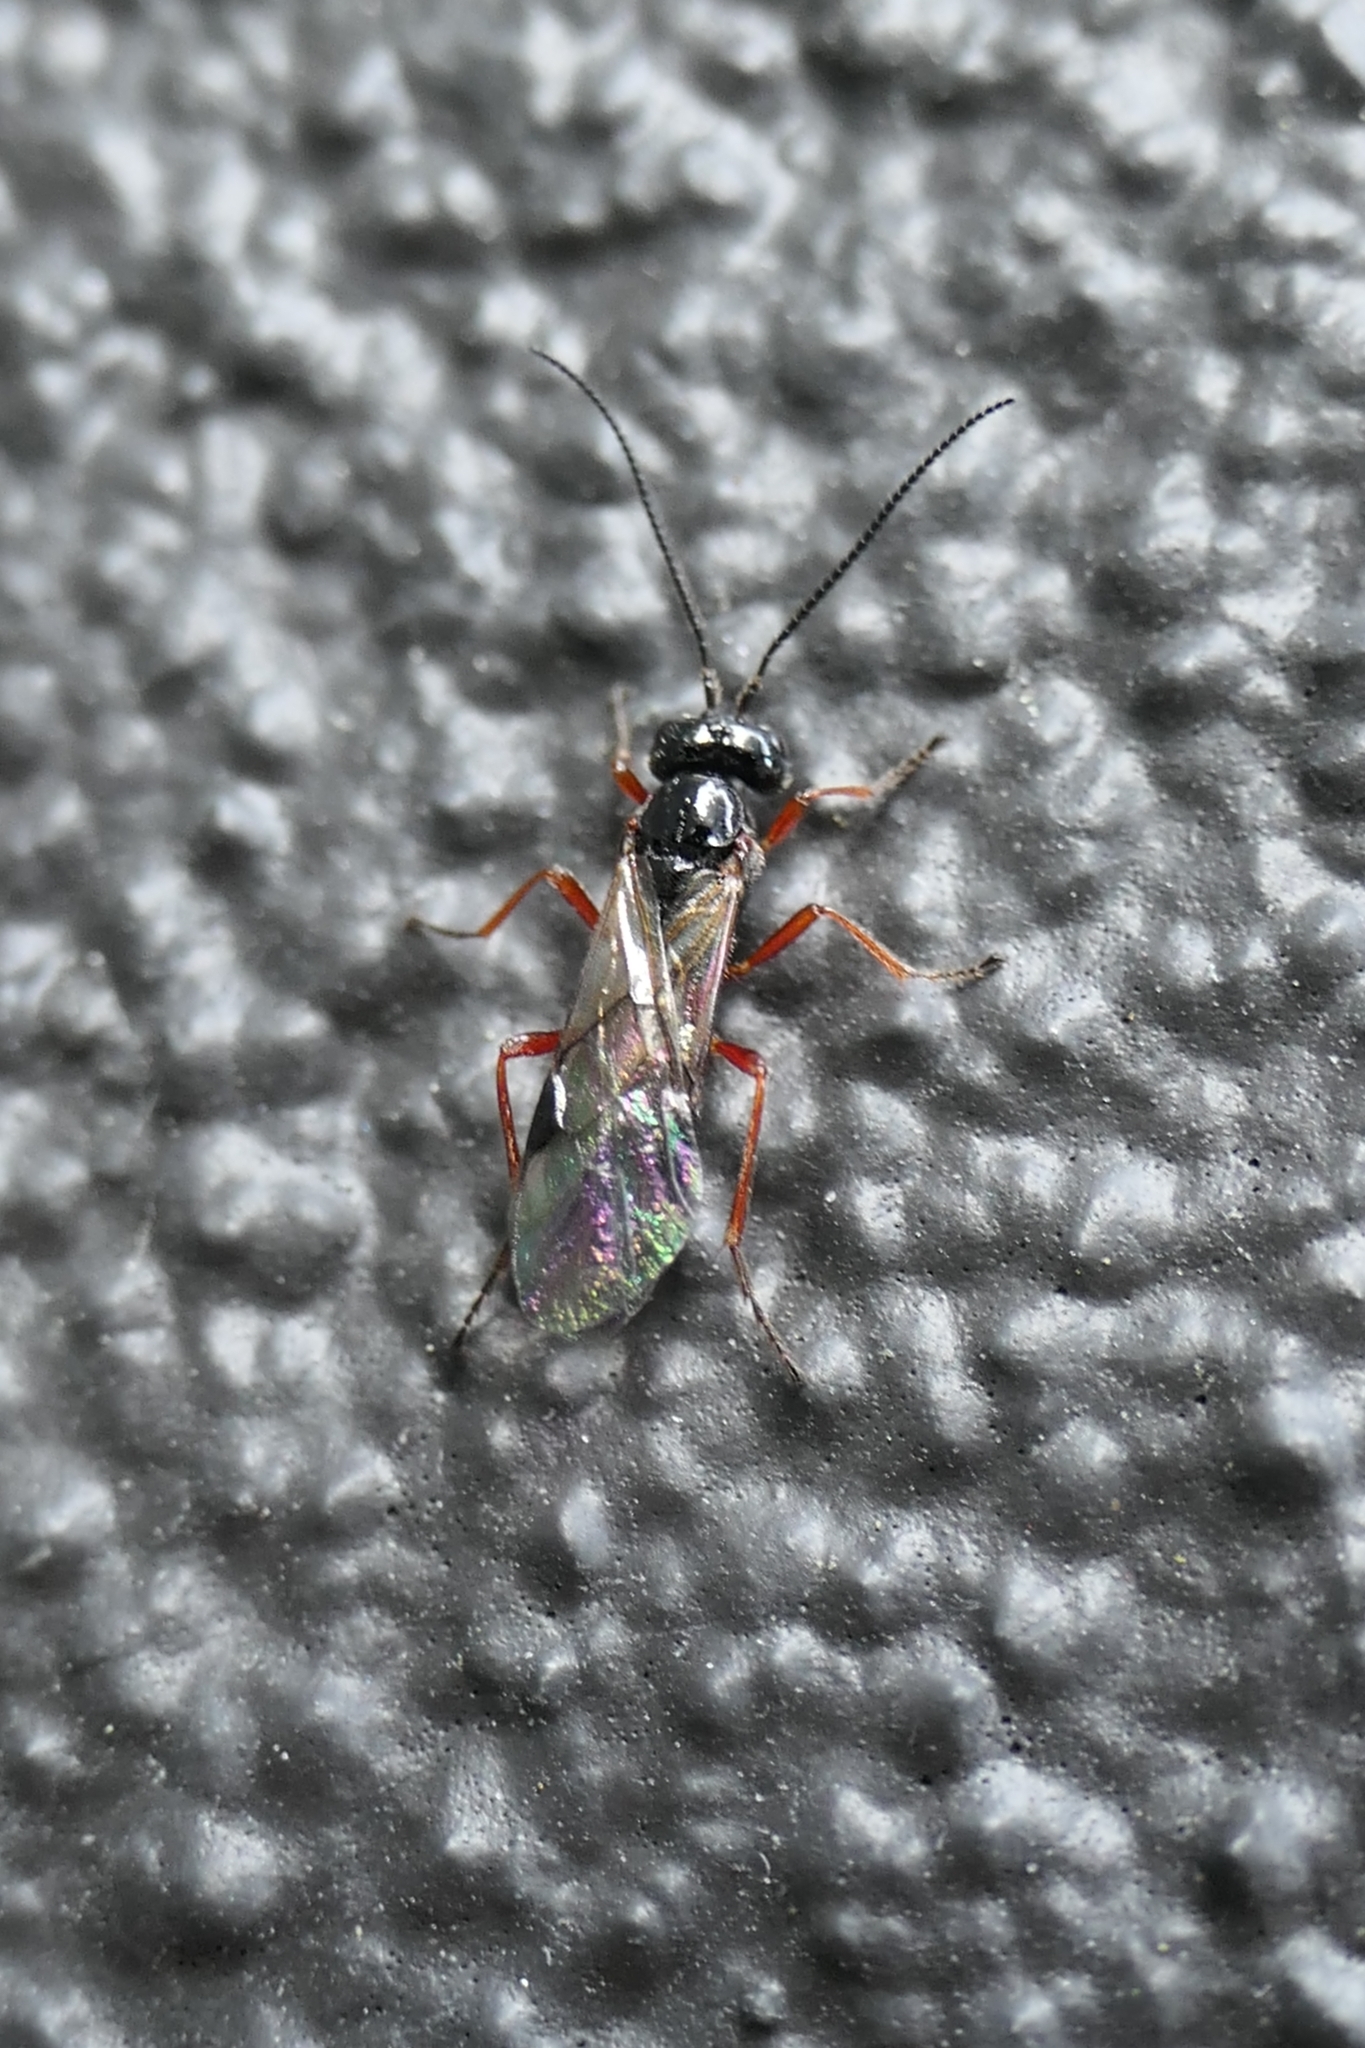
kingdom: Animalia
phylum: Arthropoda
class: Insecta
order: Hymenoptera
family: Braconidae
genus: Alysia
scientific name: Alysia manducator
